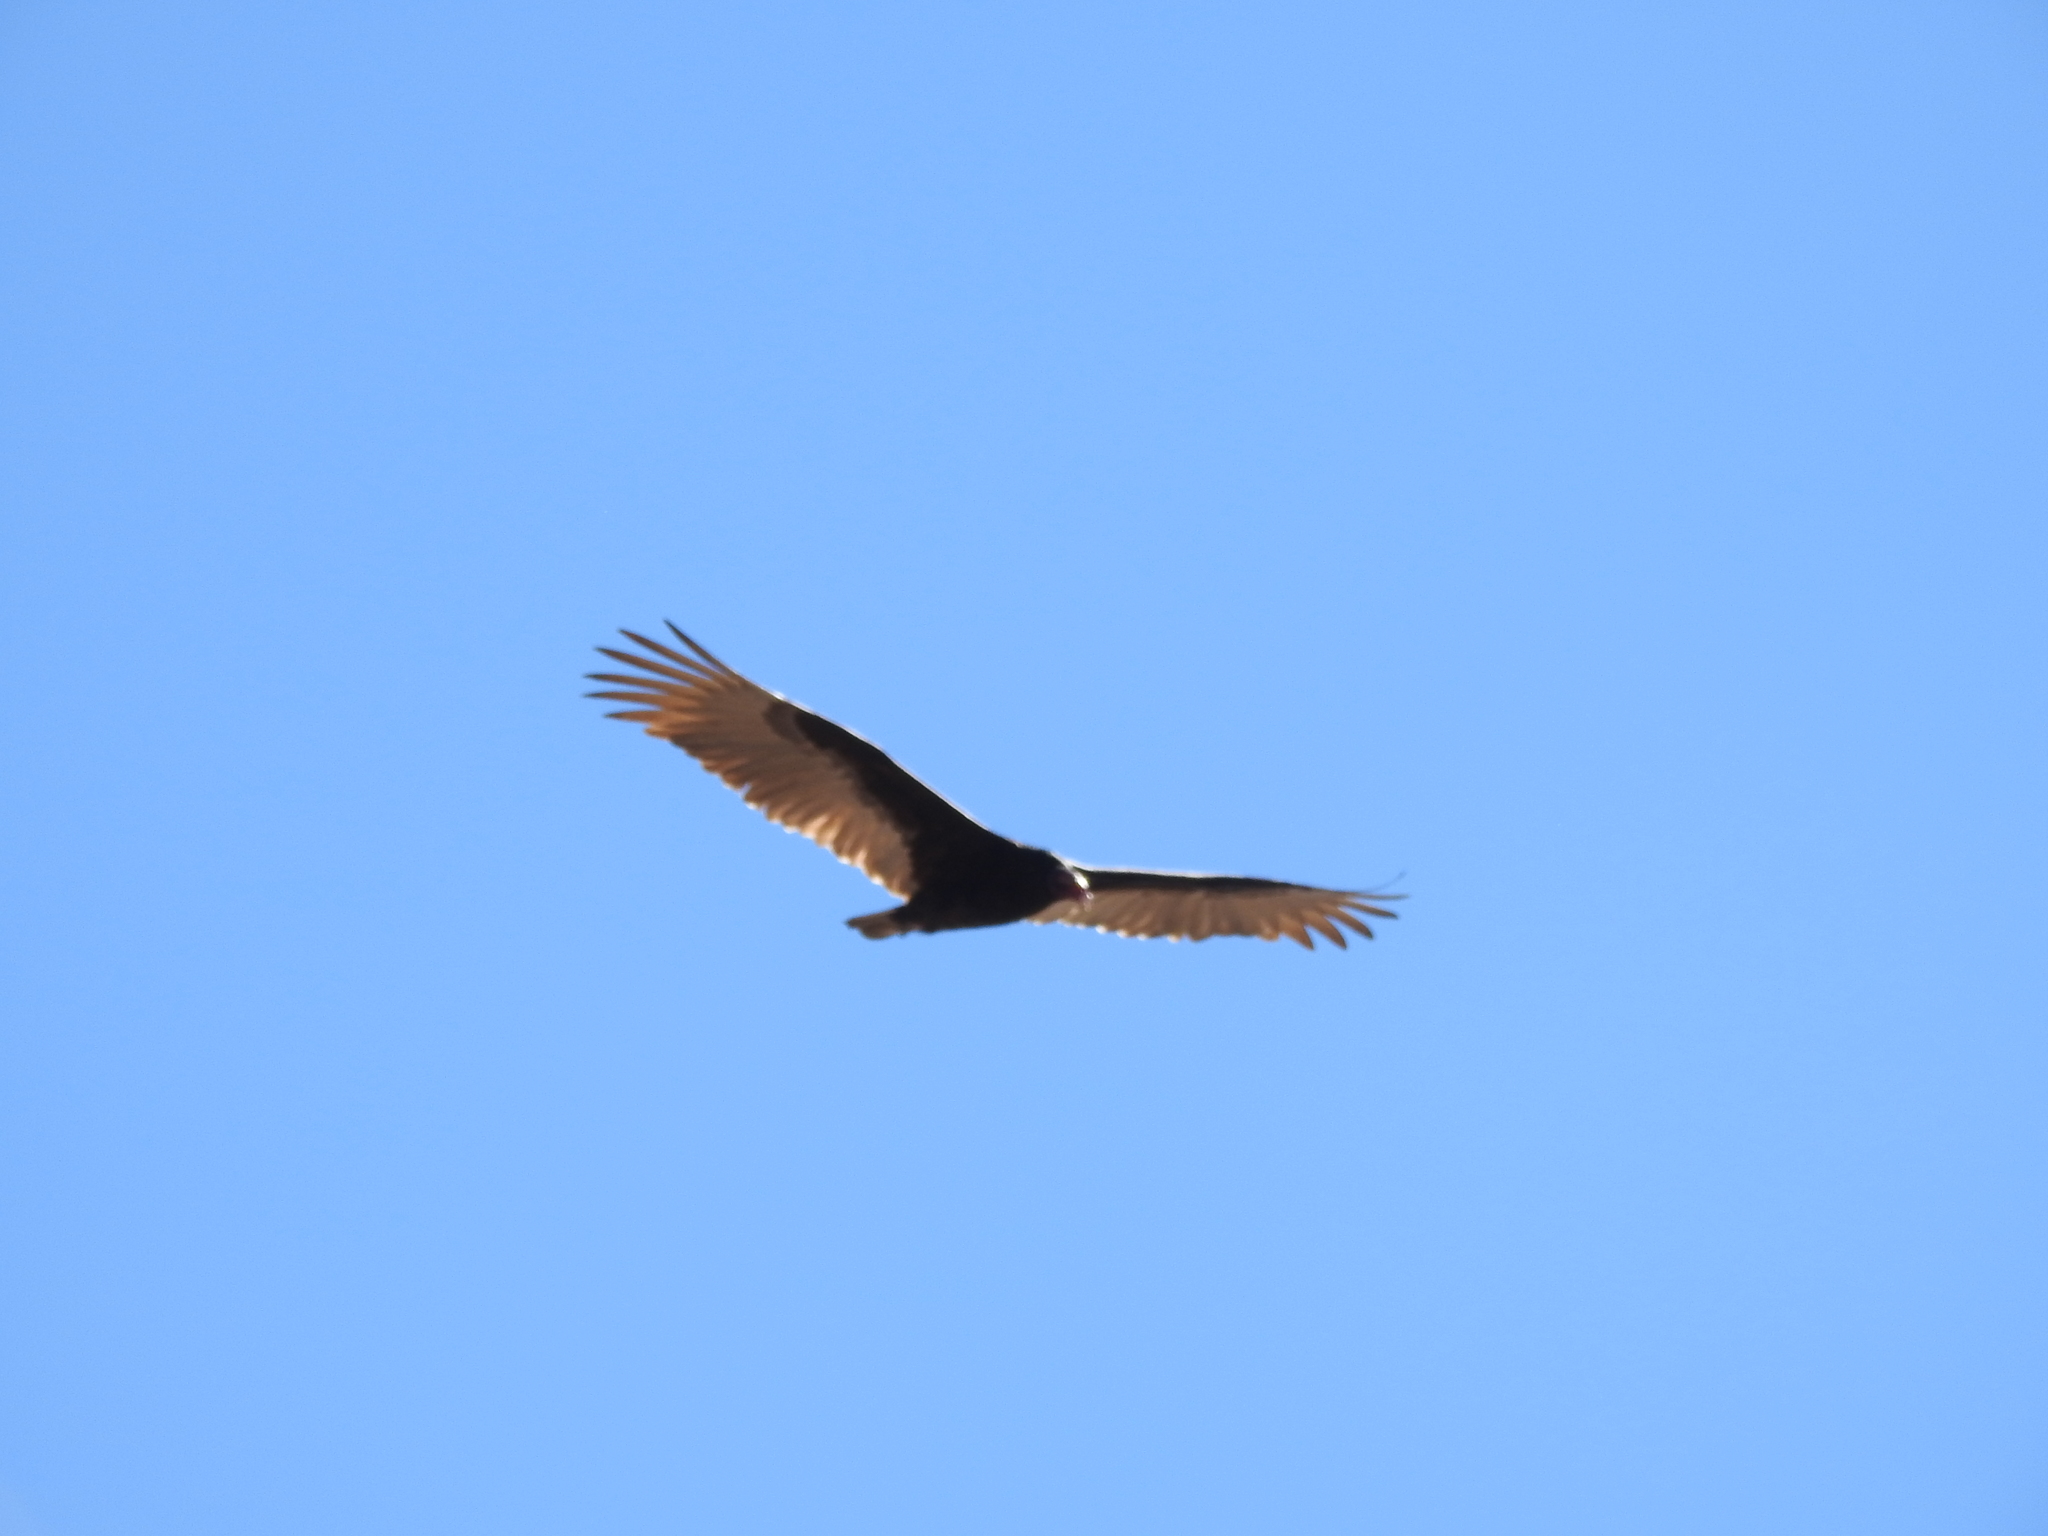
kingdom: Animalia
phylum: Chordata
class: Aves
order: Accipitriformes
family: Cathartidae
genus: Cathartes
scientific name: Cathartes aura
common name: Turkey vulture
